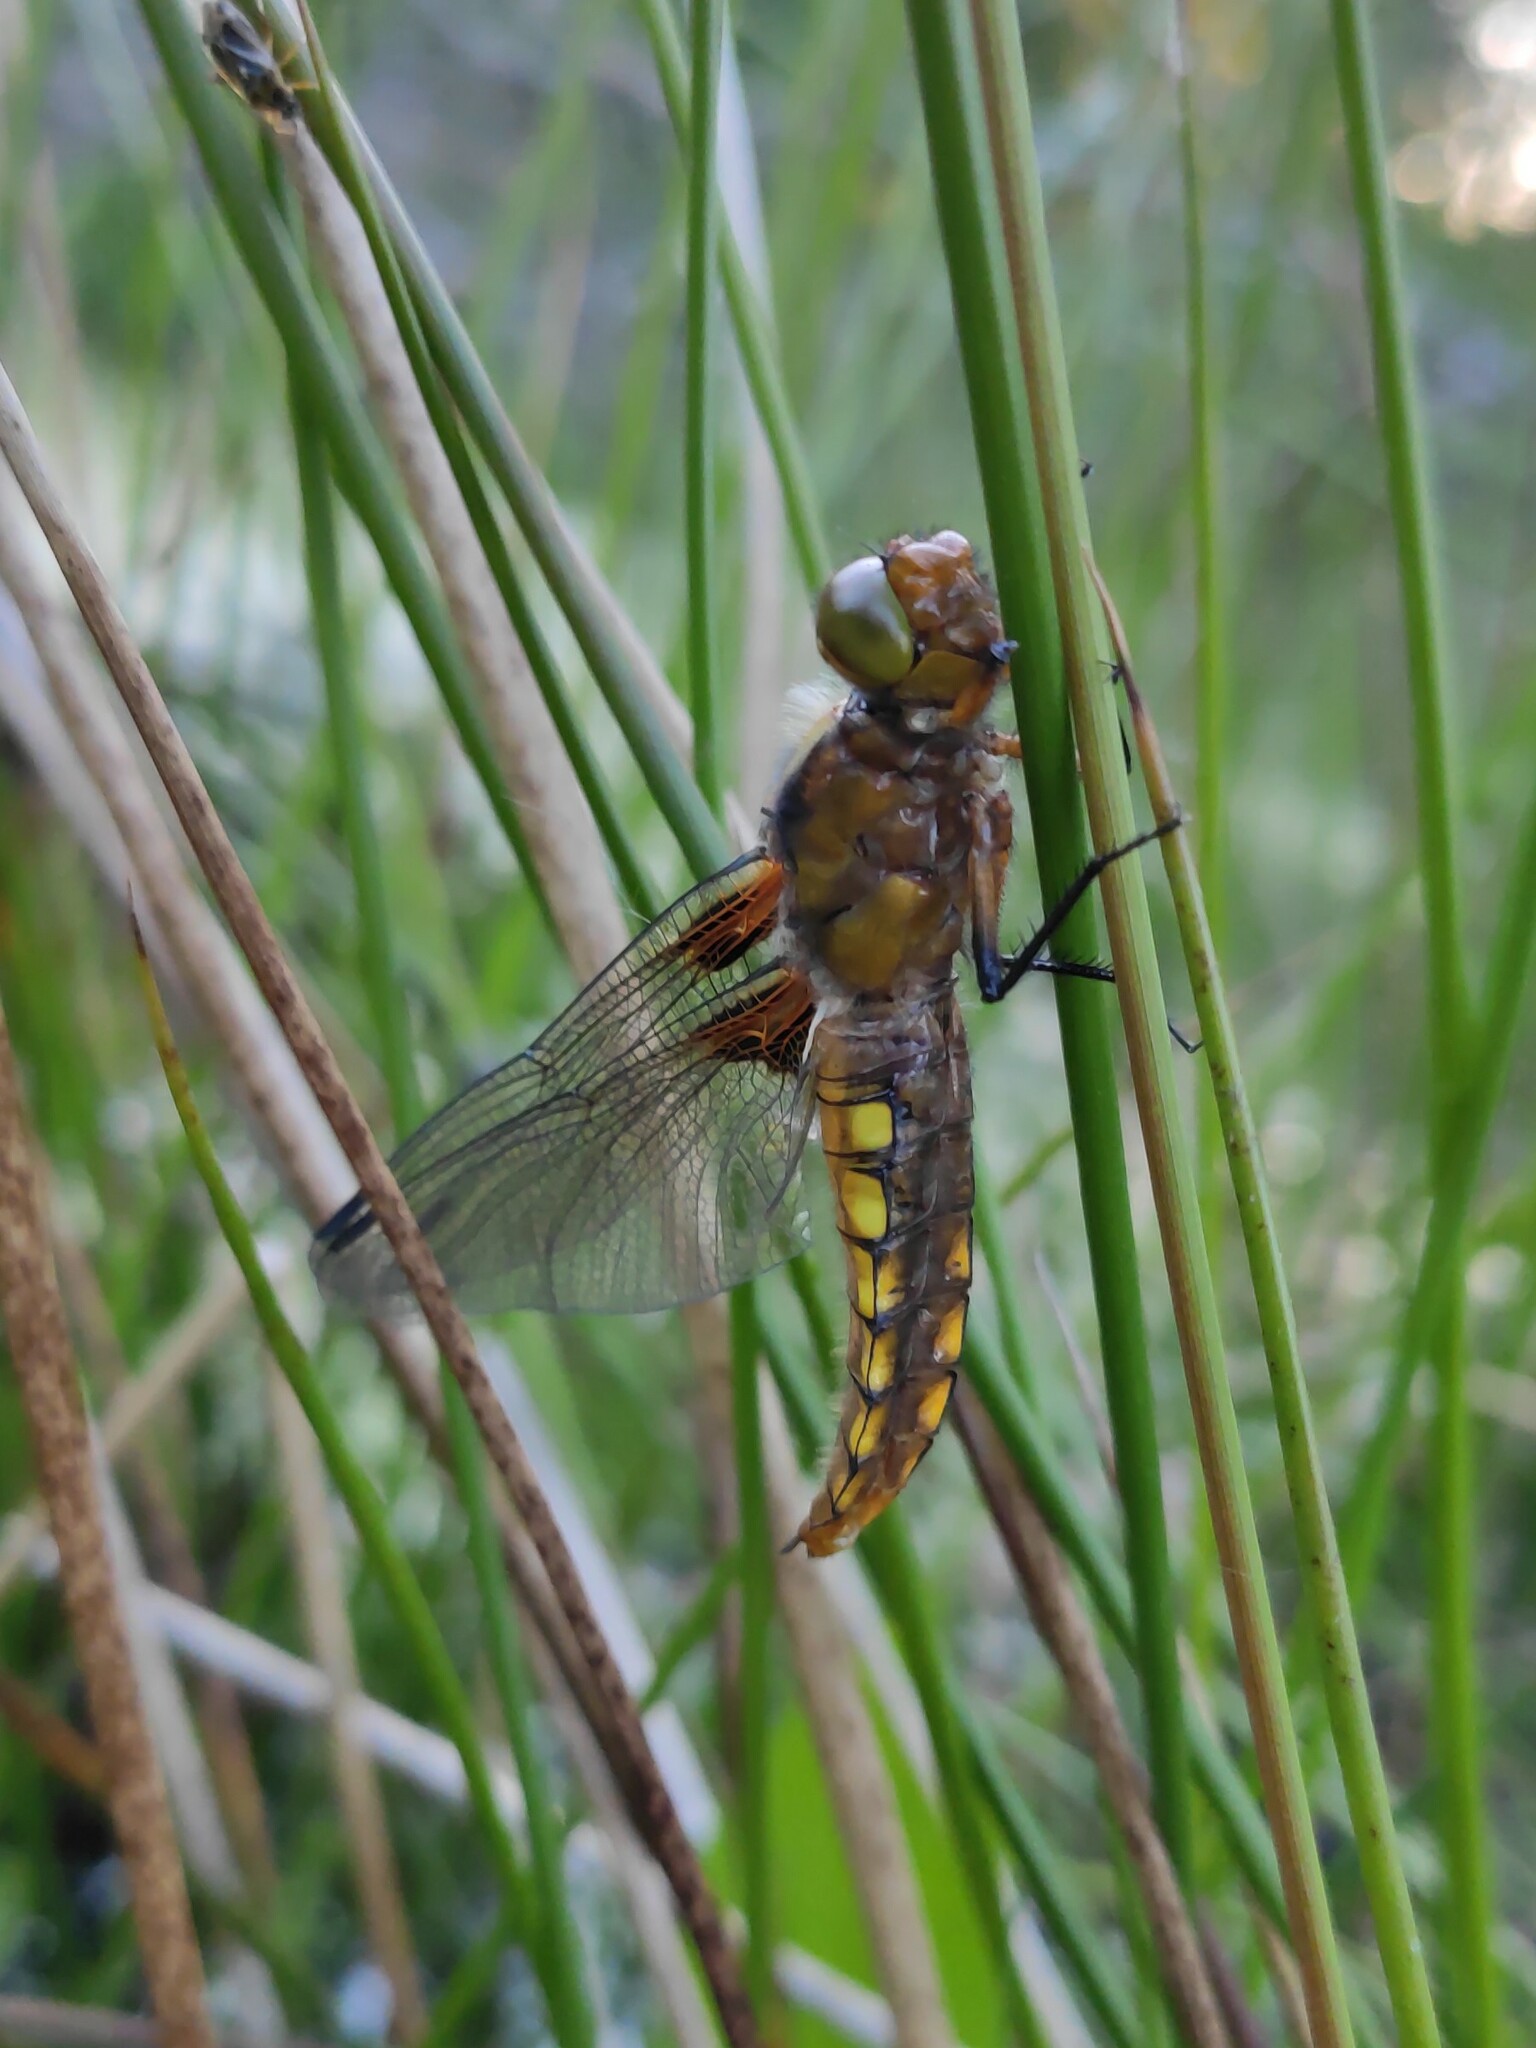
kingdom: Animalia
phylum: Arthropoda
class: Insecta
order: Odonata
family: Libellulidae
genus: Libellula
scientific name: Libellula depressa
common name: Broad-bodied chaser
